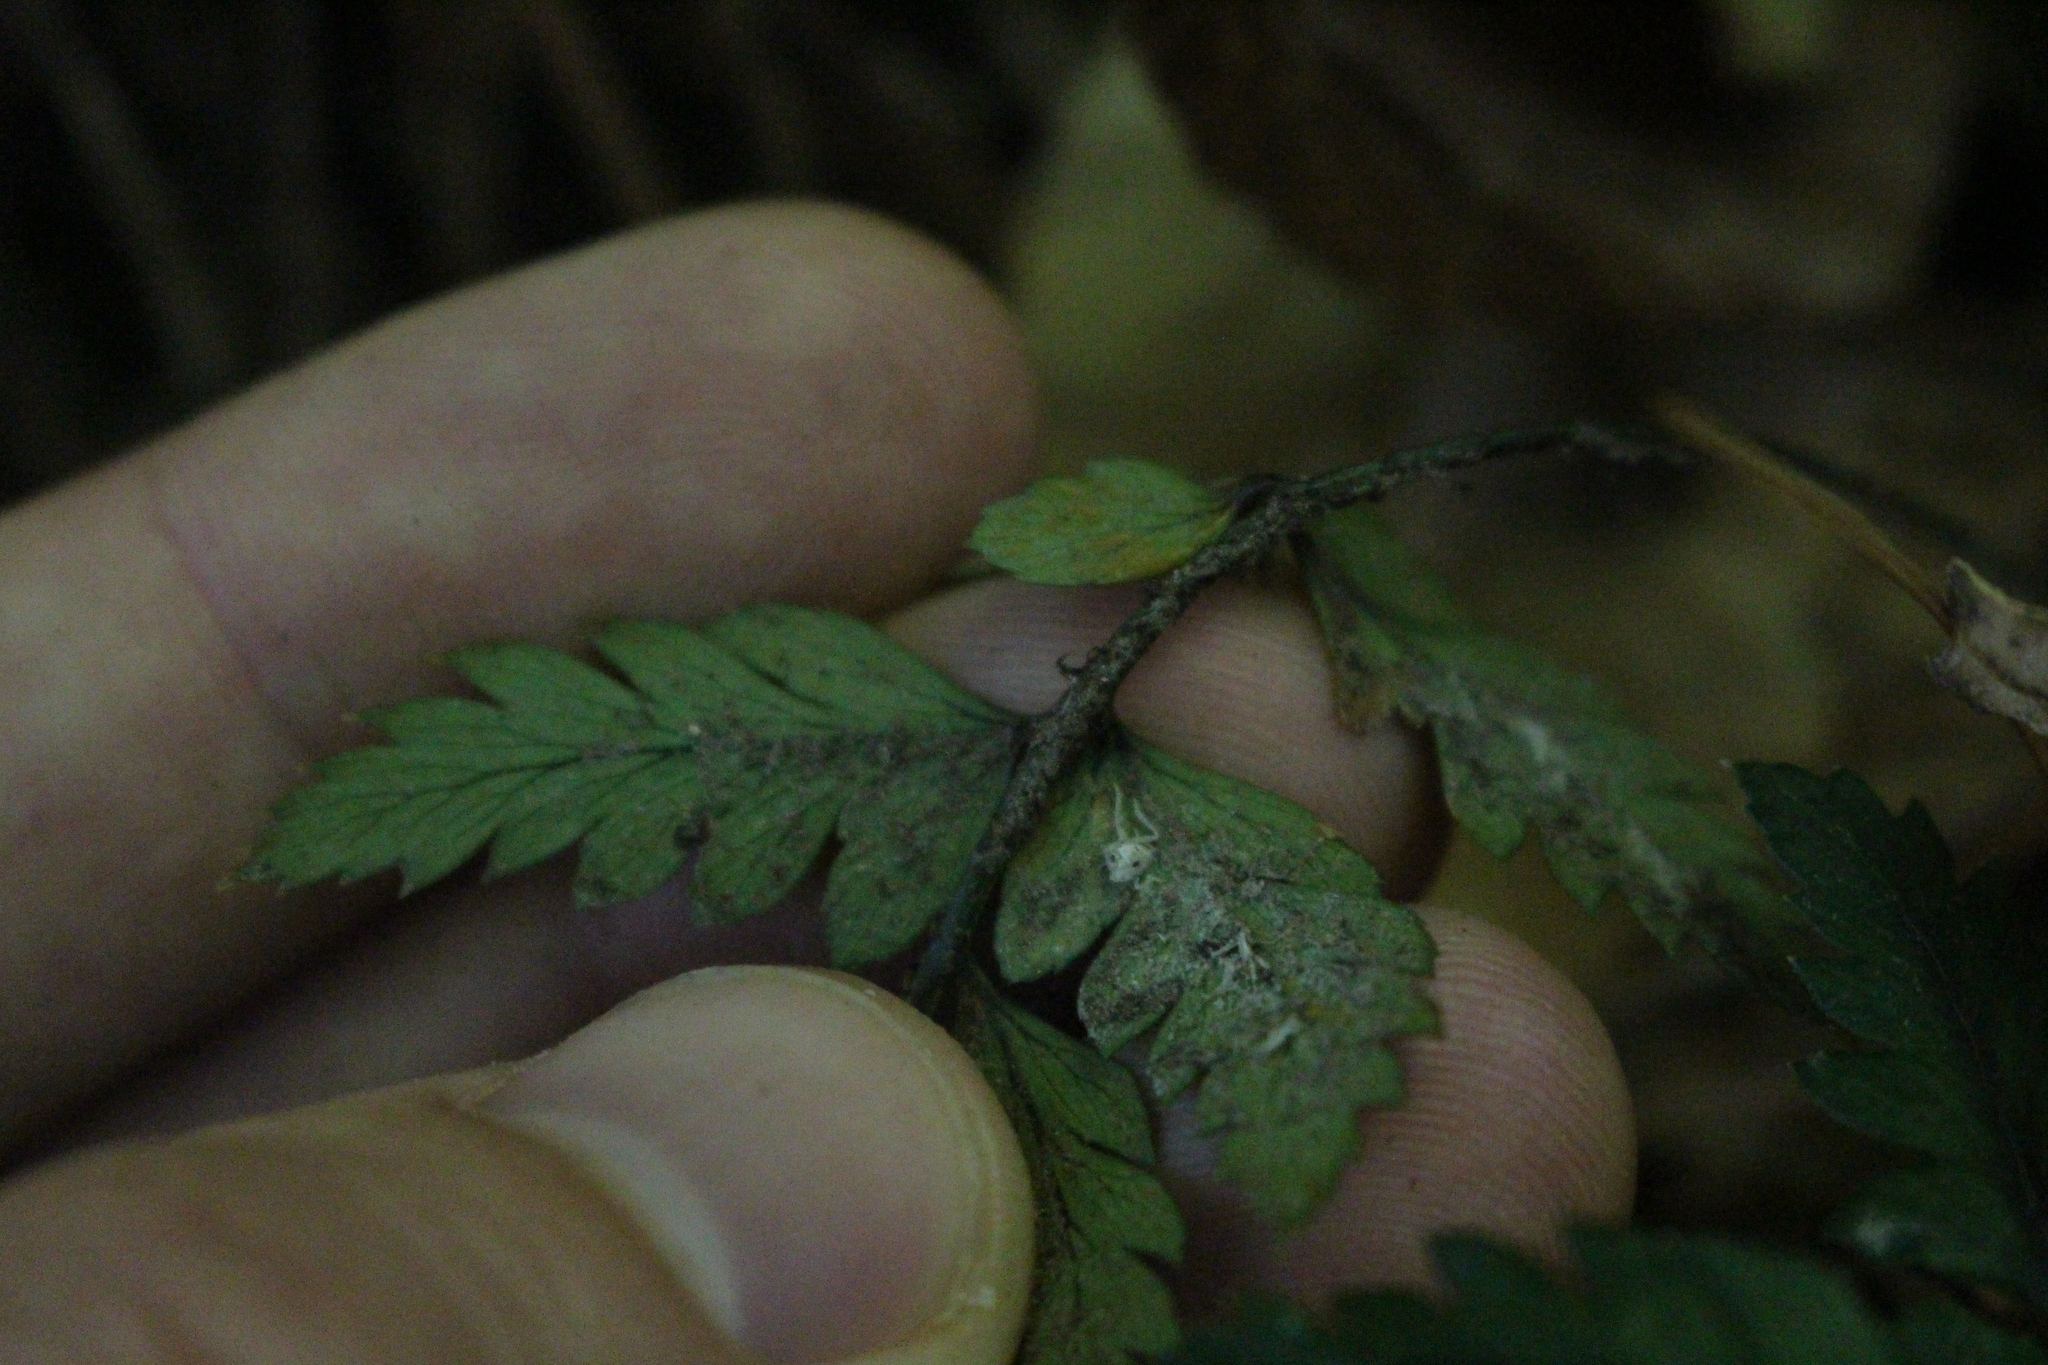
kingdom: Plantae
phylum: Tracheophyta
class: Polypodiopsida
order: Polypodiales
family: Dryopteridaceae
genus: Polystichum
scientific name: Polystichum neozelandicum
